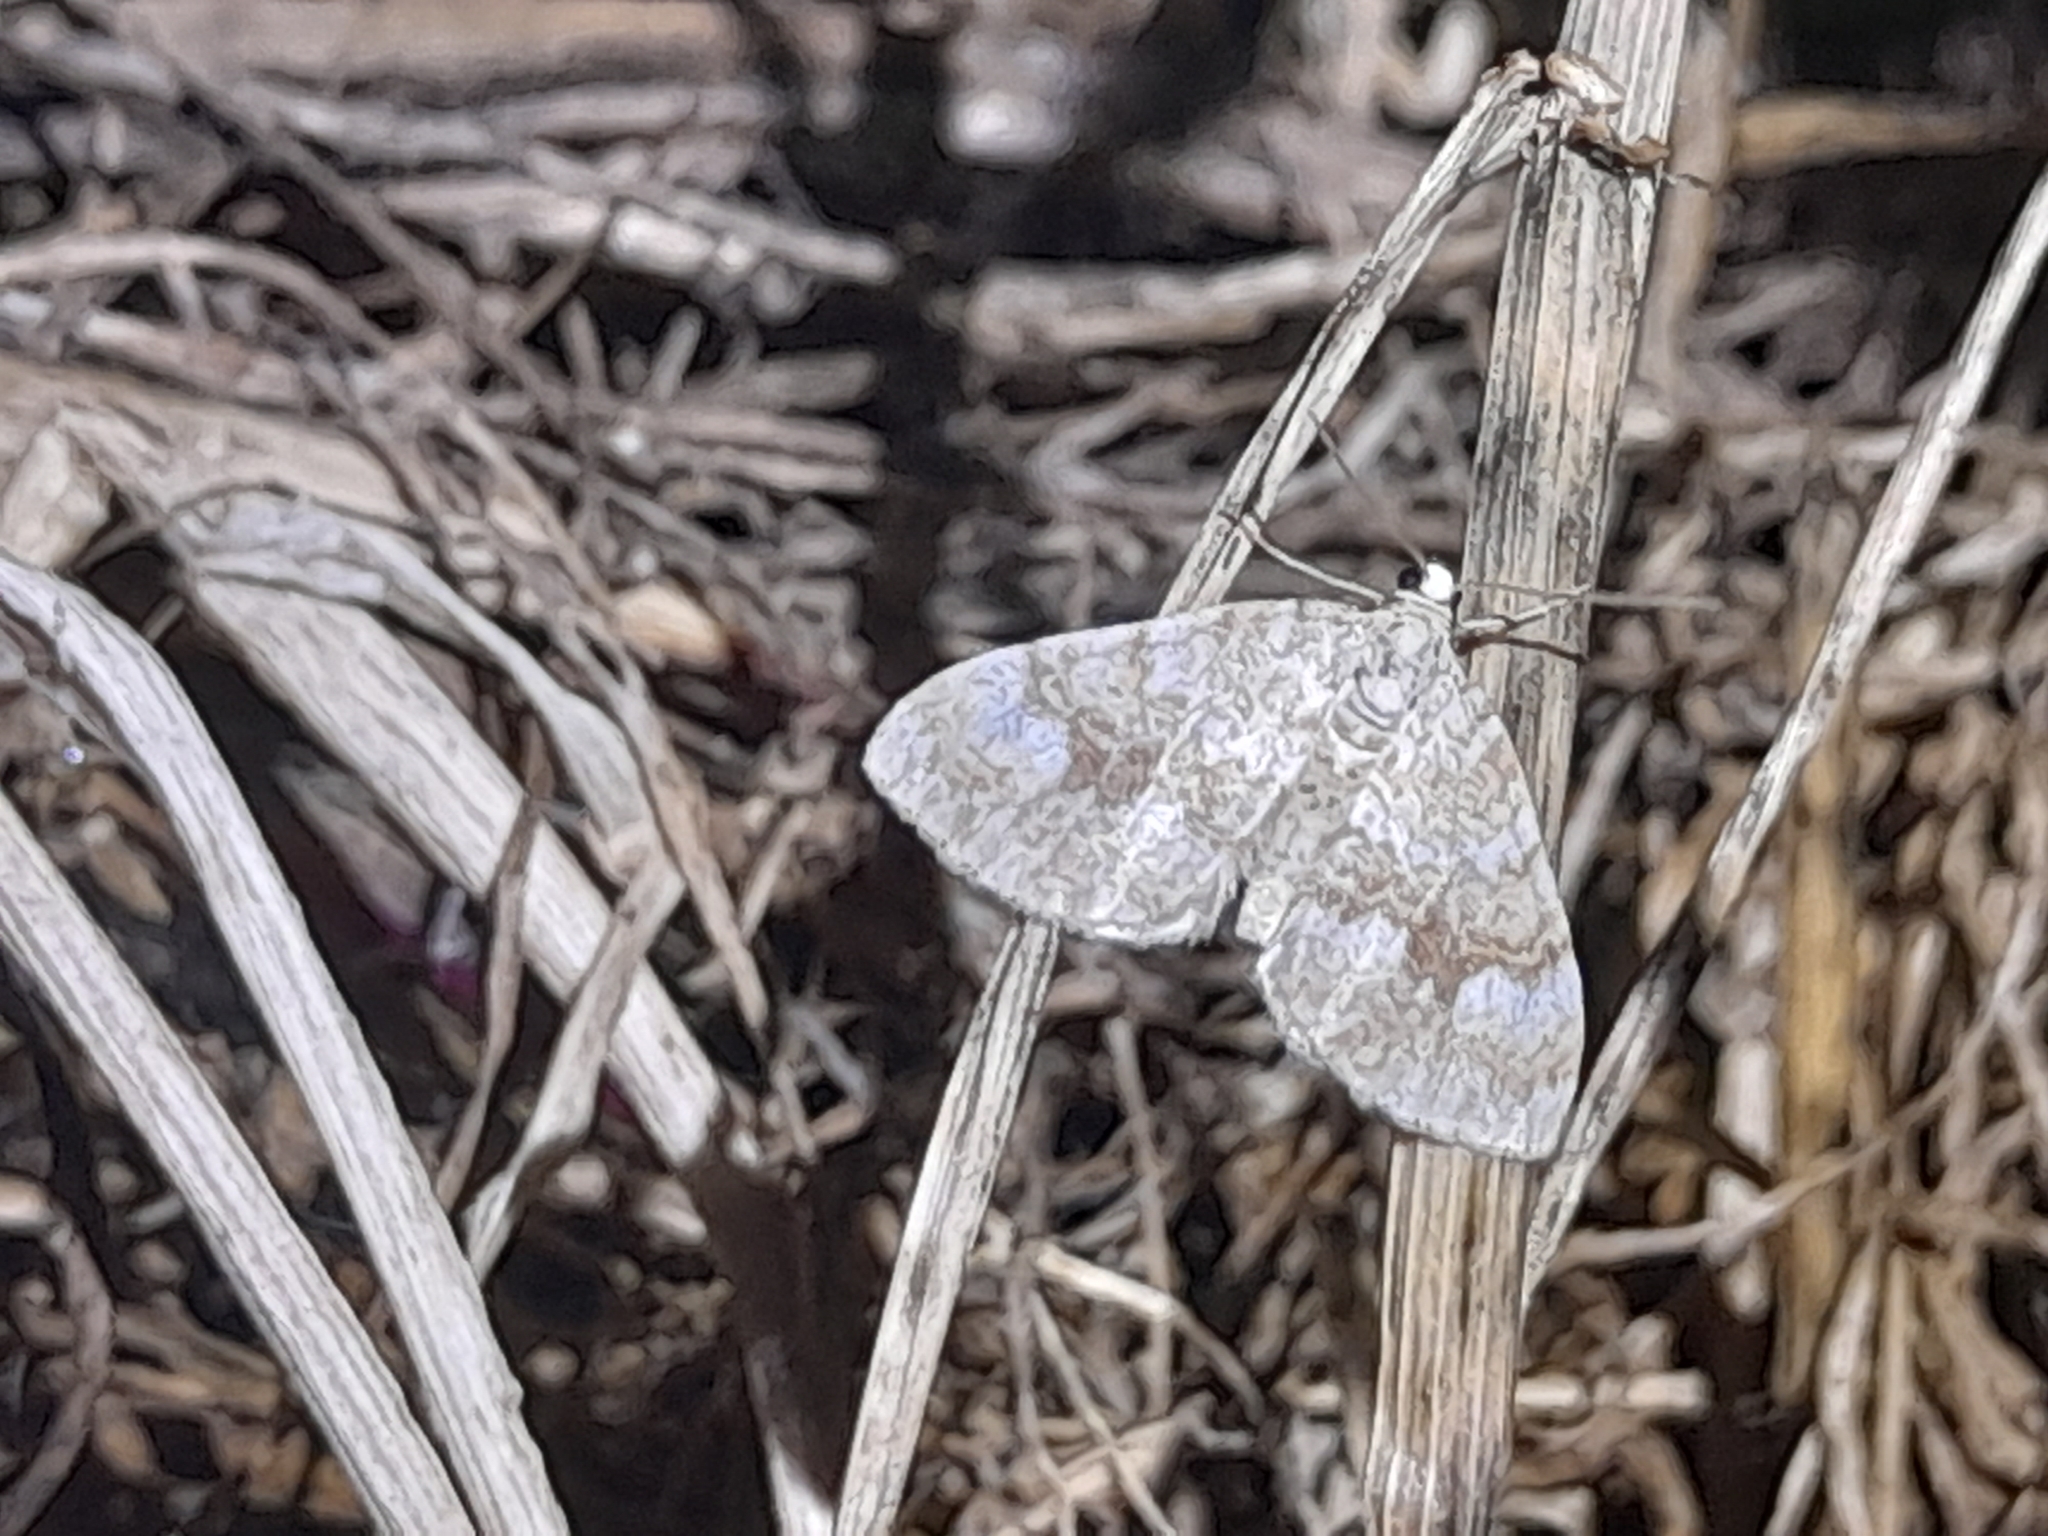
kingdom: Animalia
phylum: Arthropoda
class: Insecta
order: Lepidoptera
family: Geometridae
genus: Perizoma
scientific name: Perizoma flavofasciata
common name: Sandy carpet
